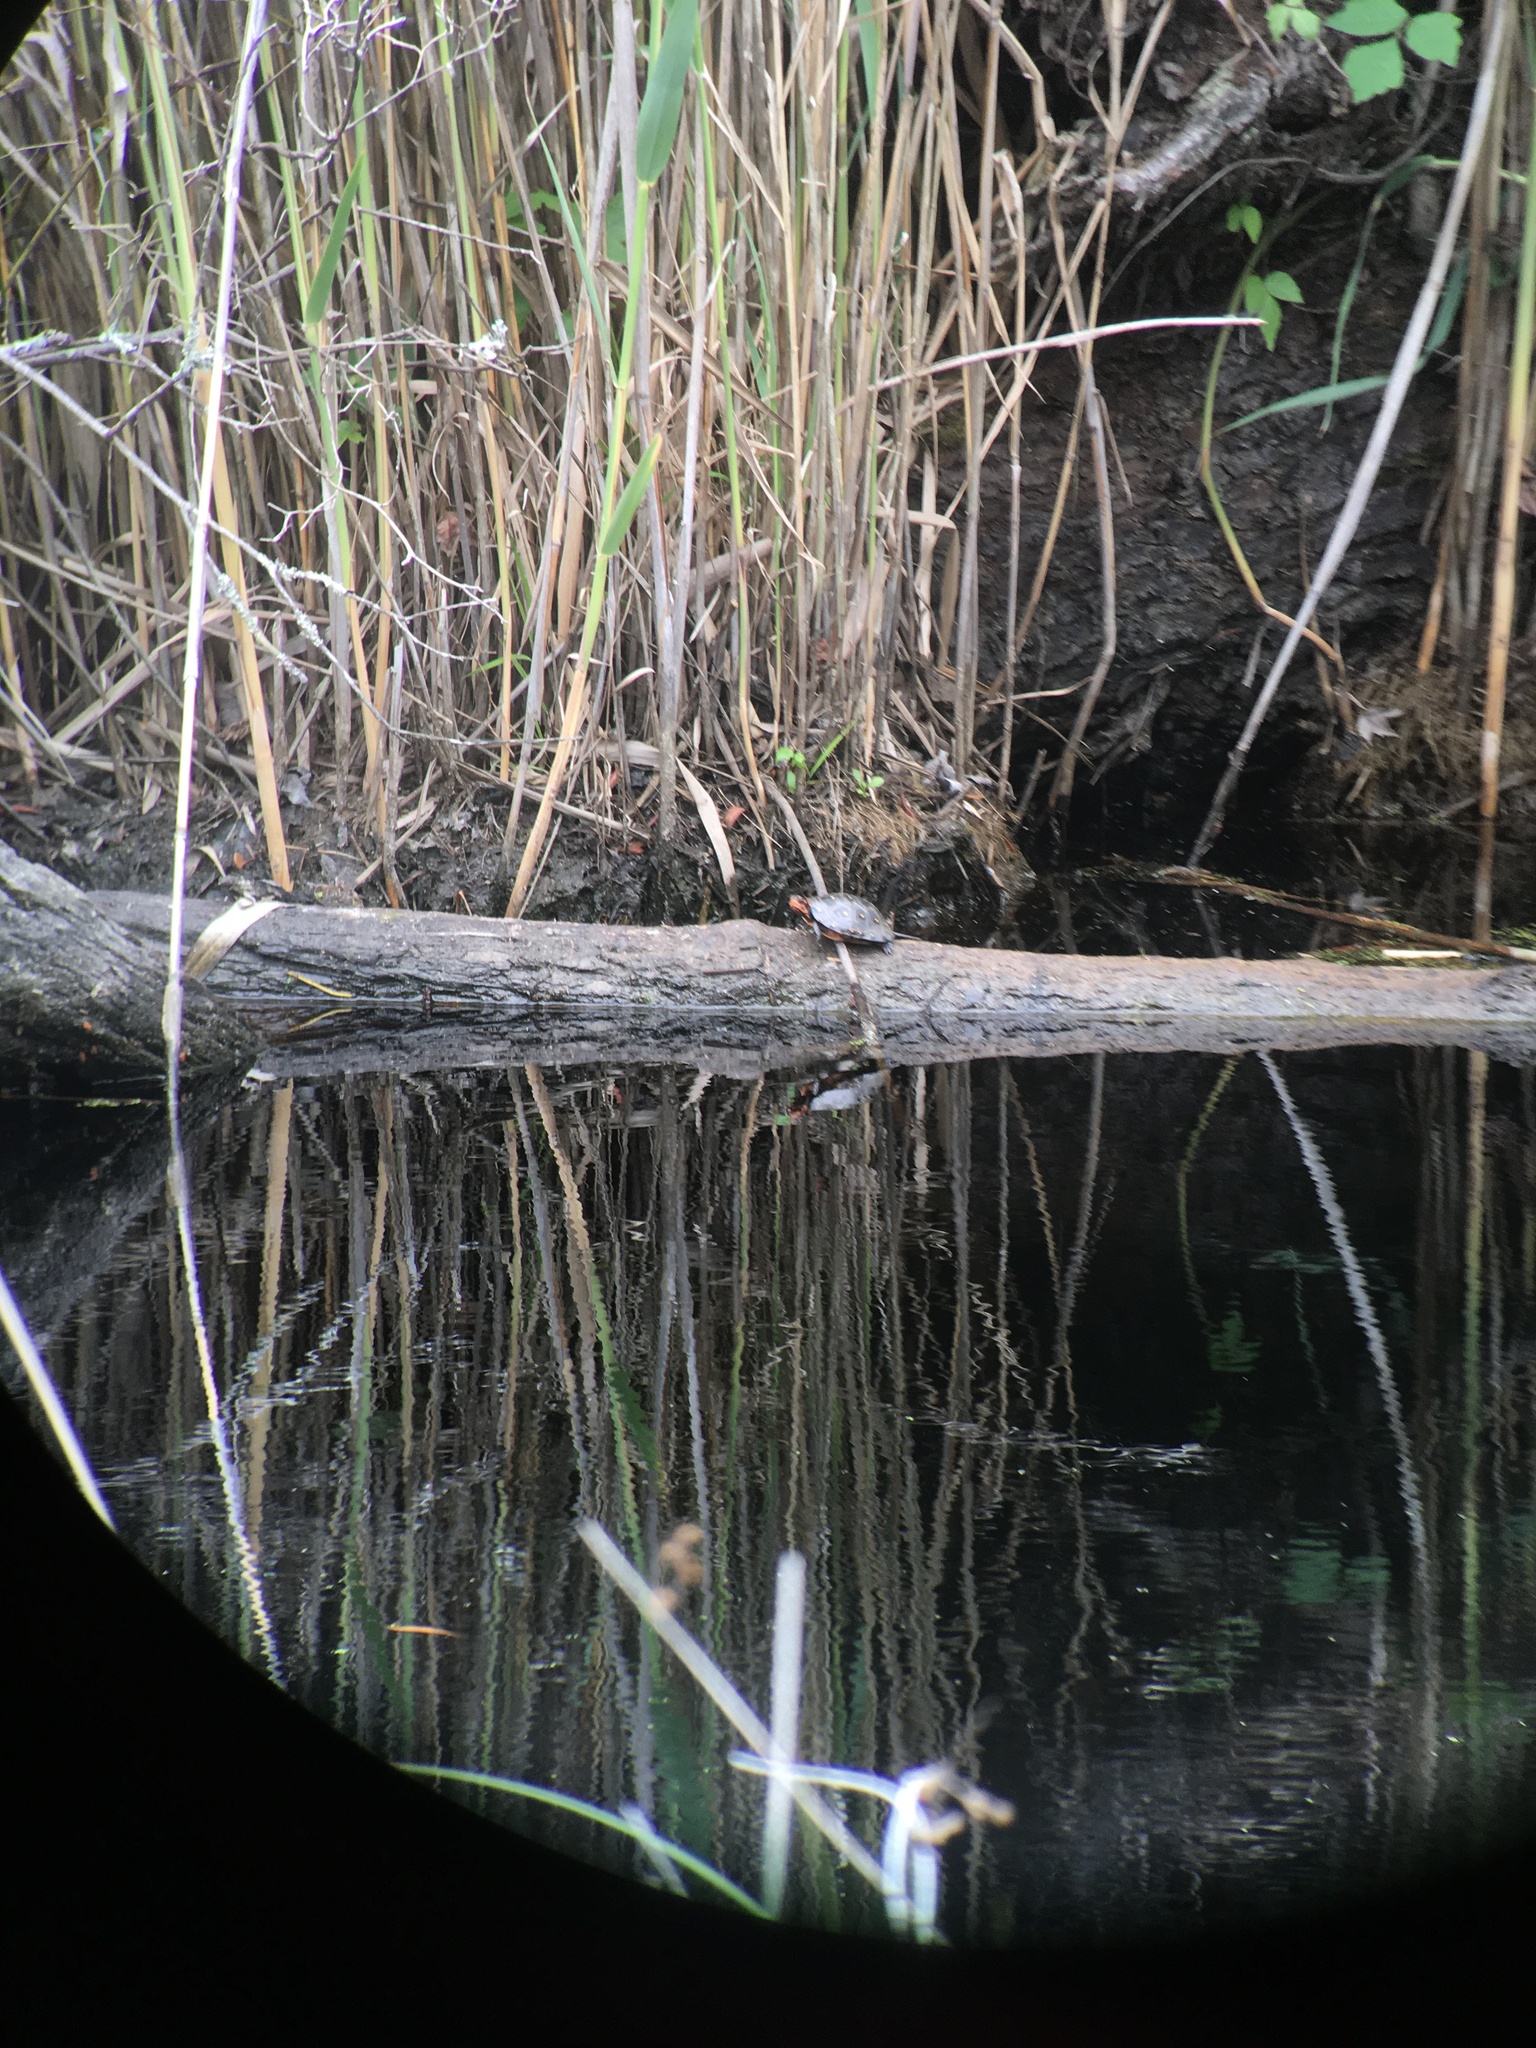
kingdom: Animalia
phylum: Chordata
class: Testudines
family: Emydidae
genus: Clemmys
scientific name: Clemmys guttata
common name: Spotted turtle
